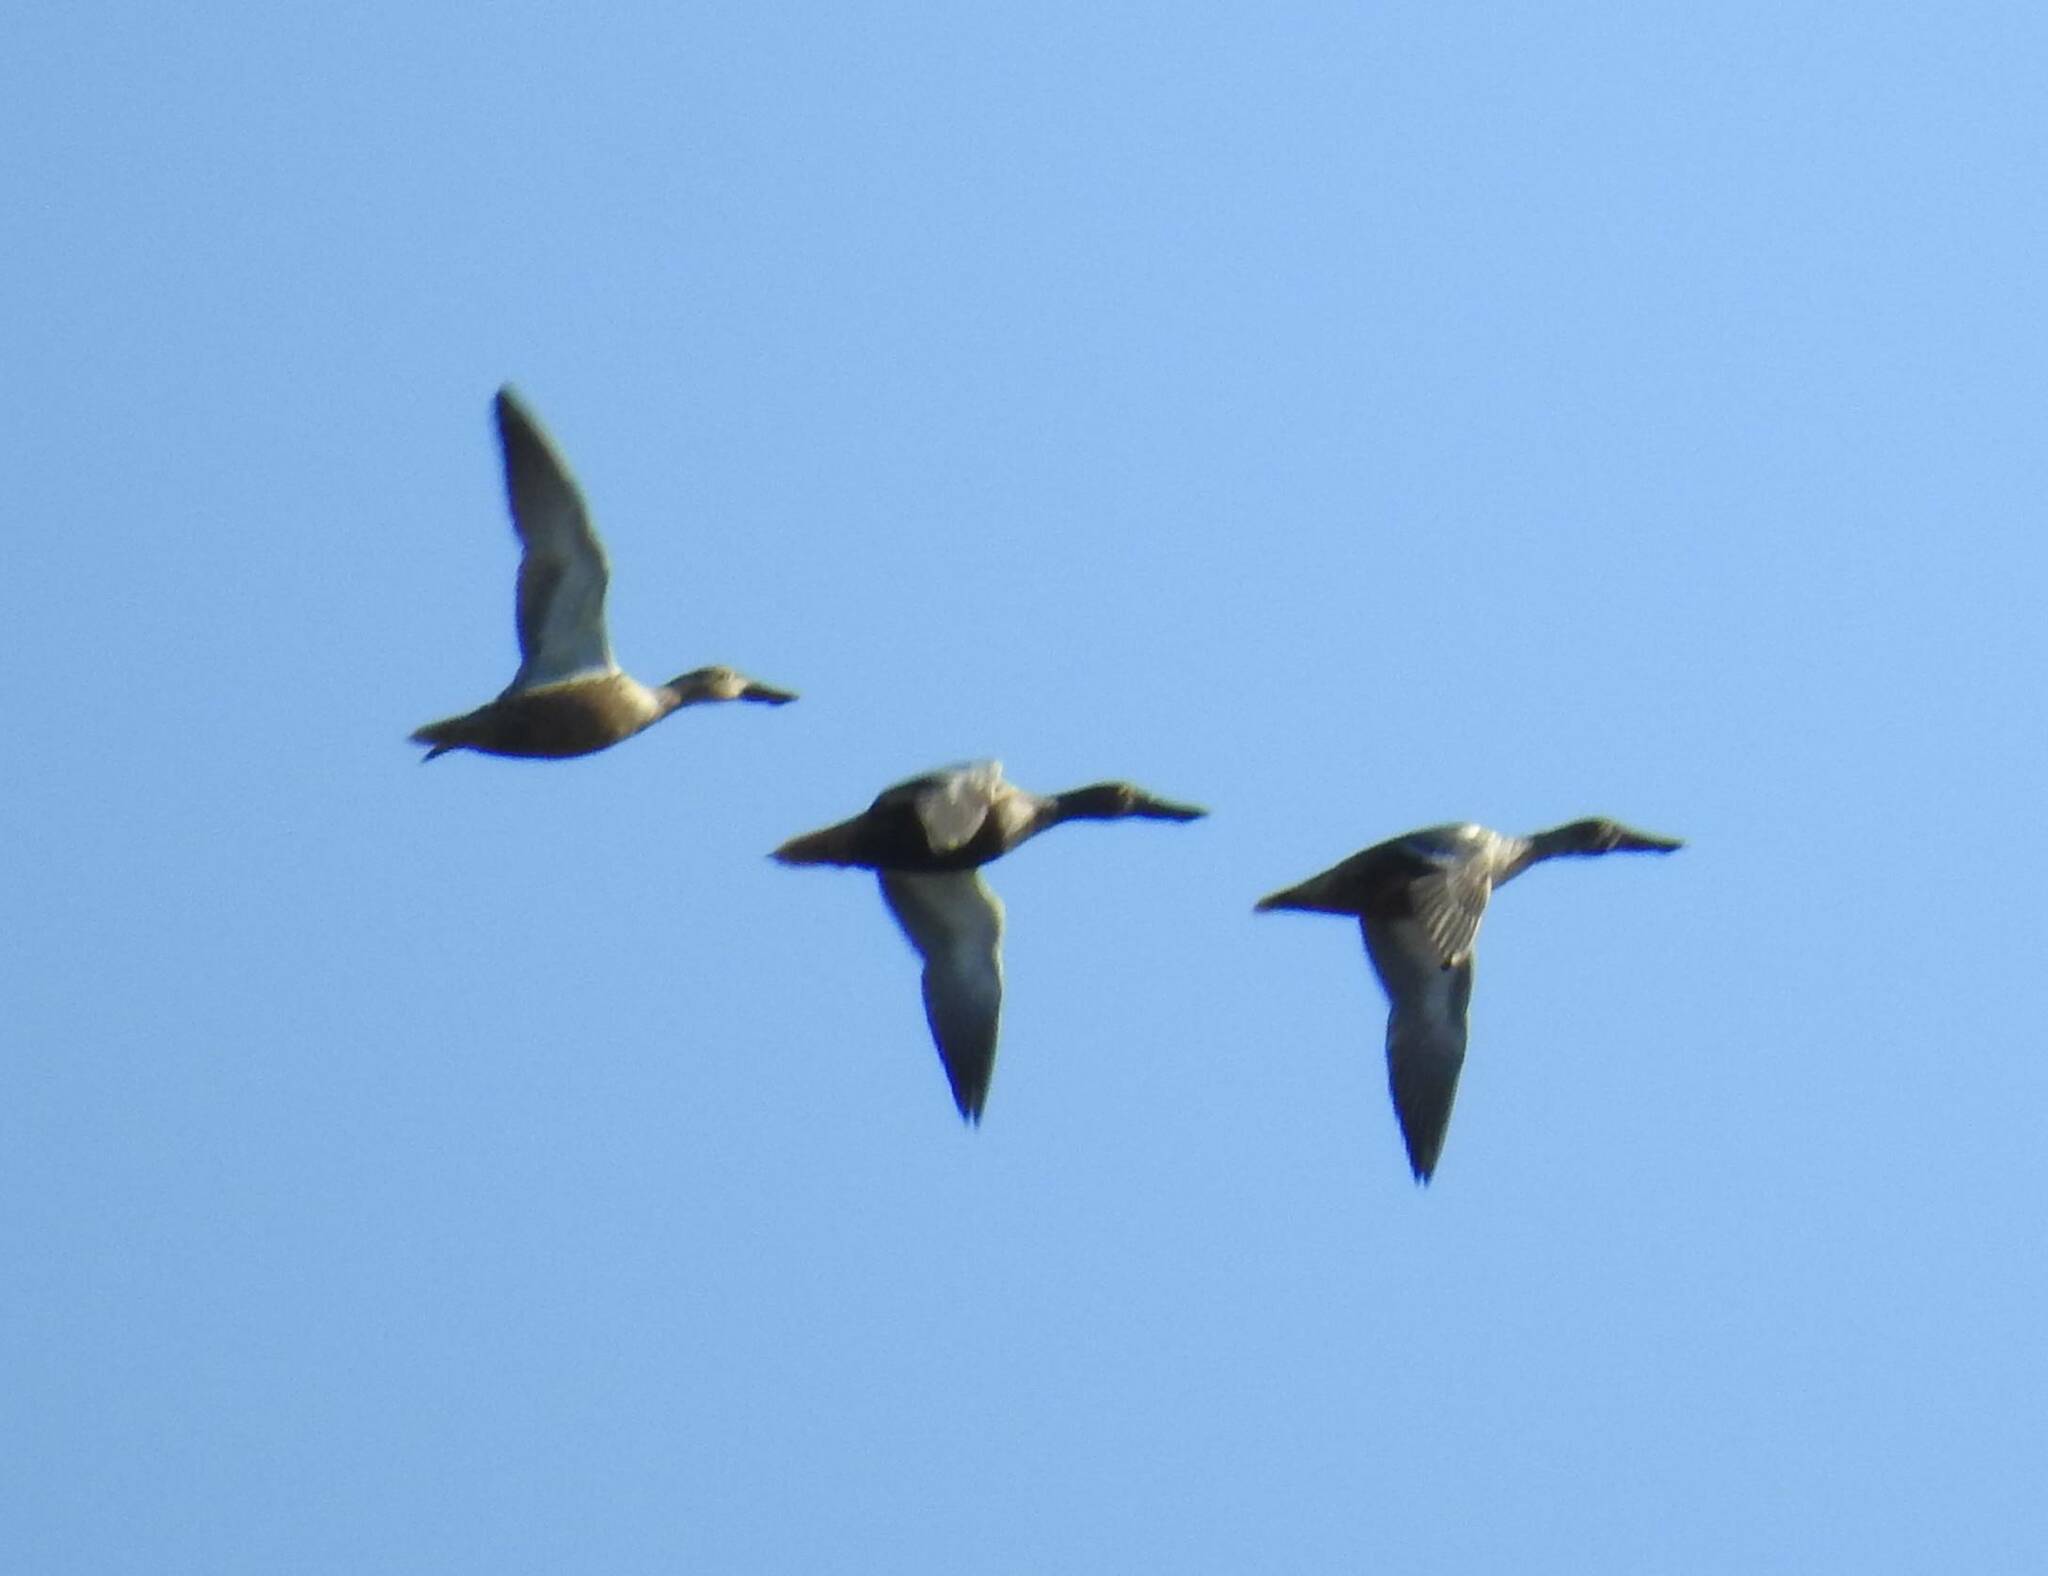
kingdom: Animalia
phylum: Chordata
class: Aves
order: Anseriformes
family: Anatidae
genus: Spatula
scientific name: Spatula clypeata
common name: Northern shoveler
